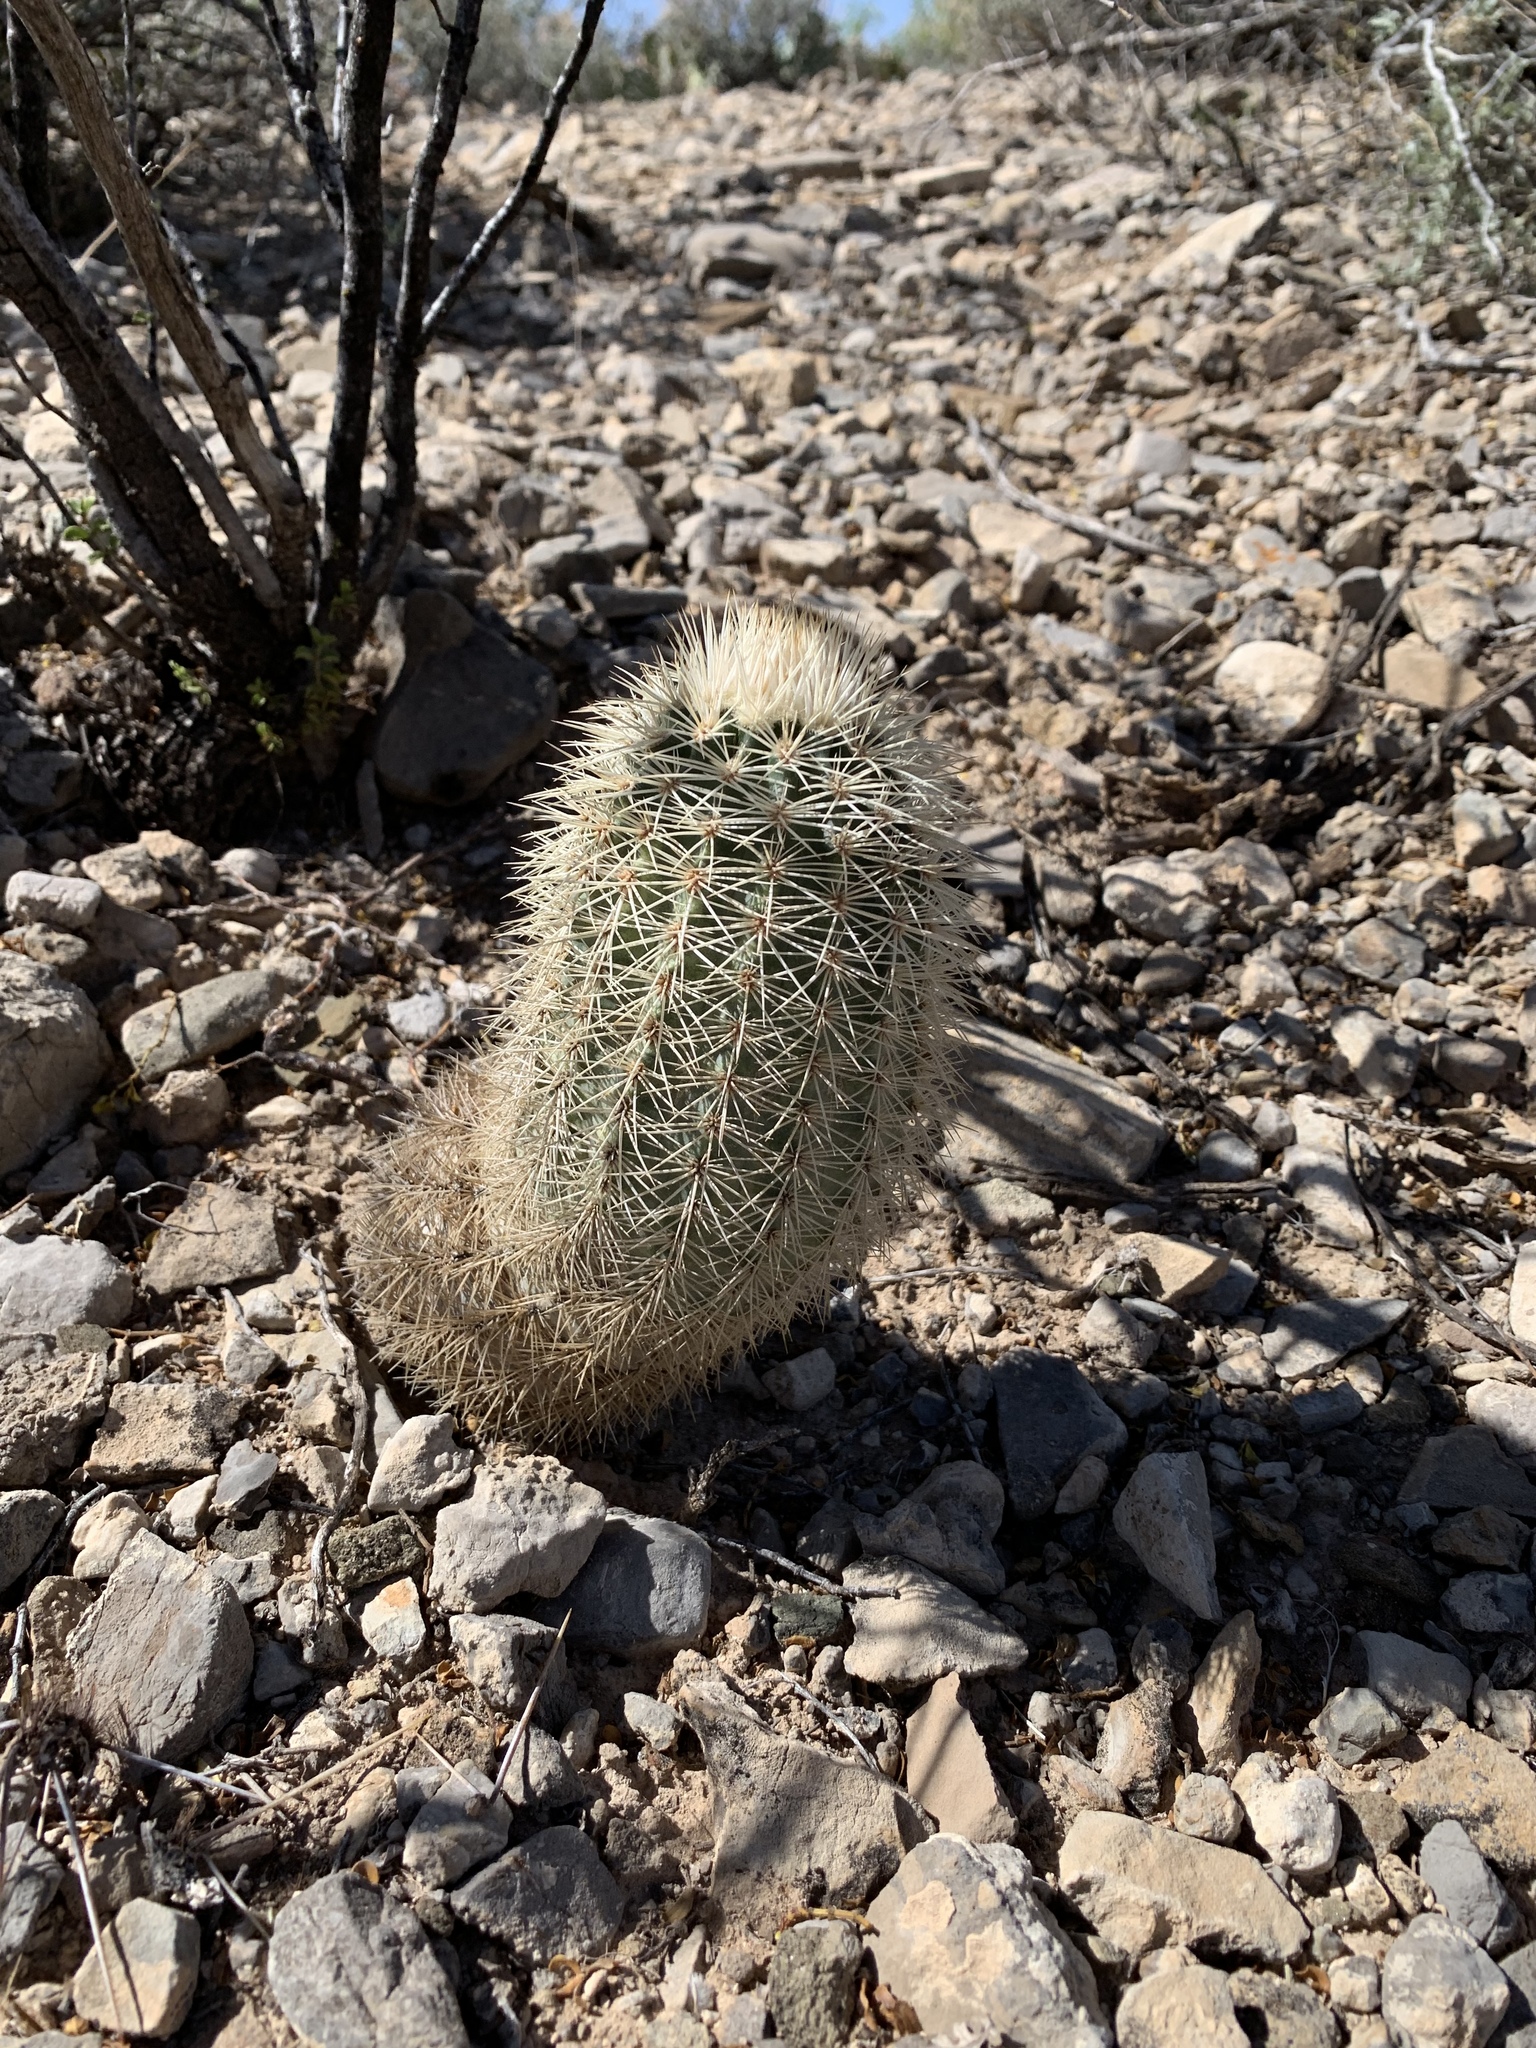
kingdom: Plantae
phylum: Tracheophyta
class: Magnoliopsida
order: Caryophyllales
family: Cactaceae
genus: Echinocereus
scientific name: Echinocereus dasyacanthus
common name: Spiny hedgehog cactus
